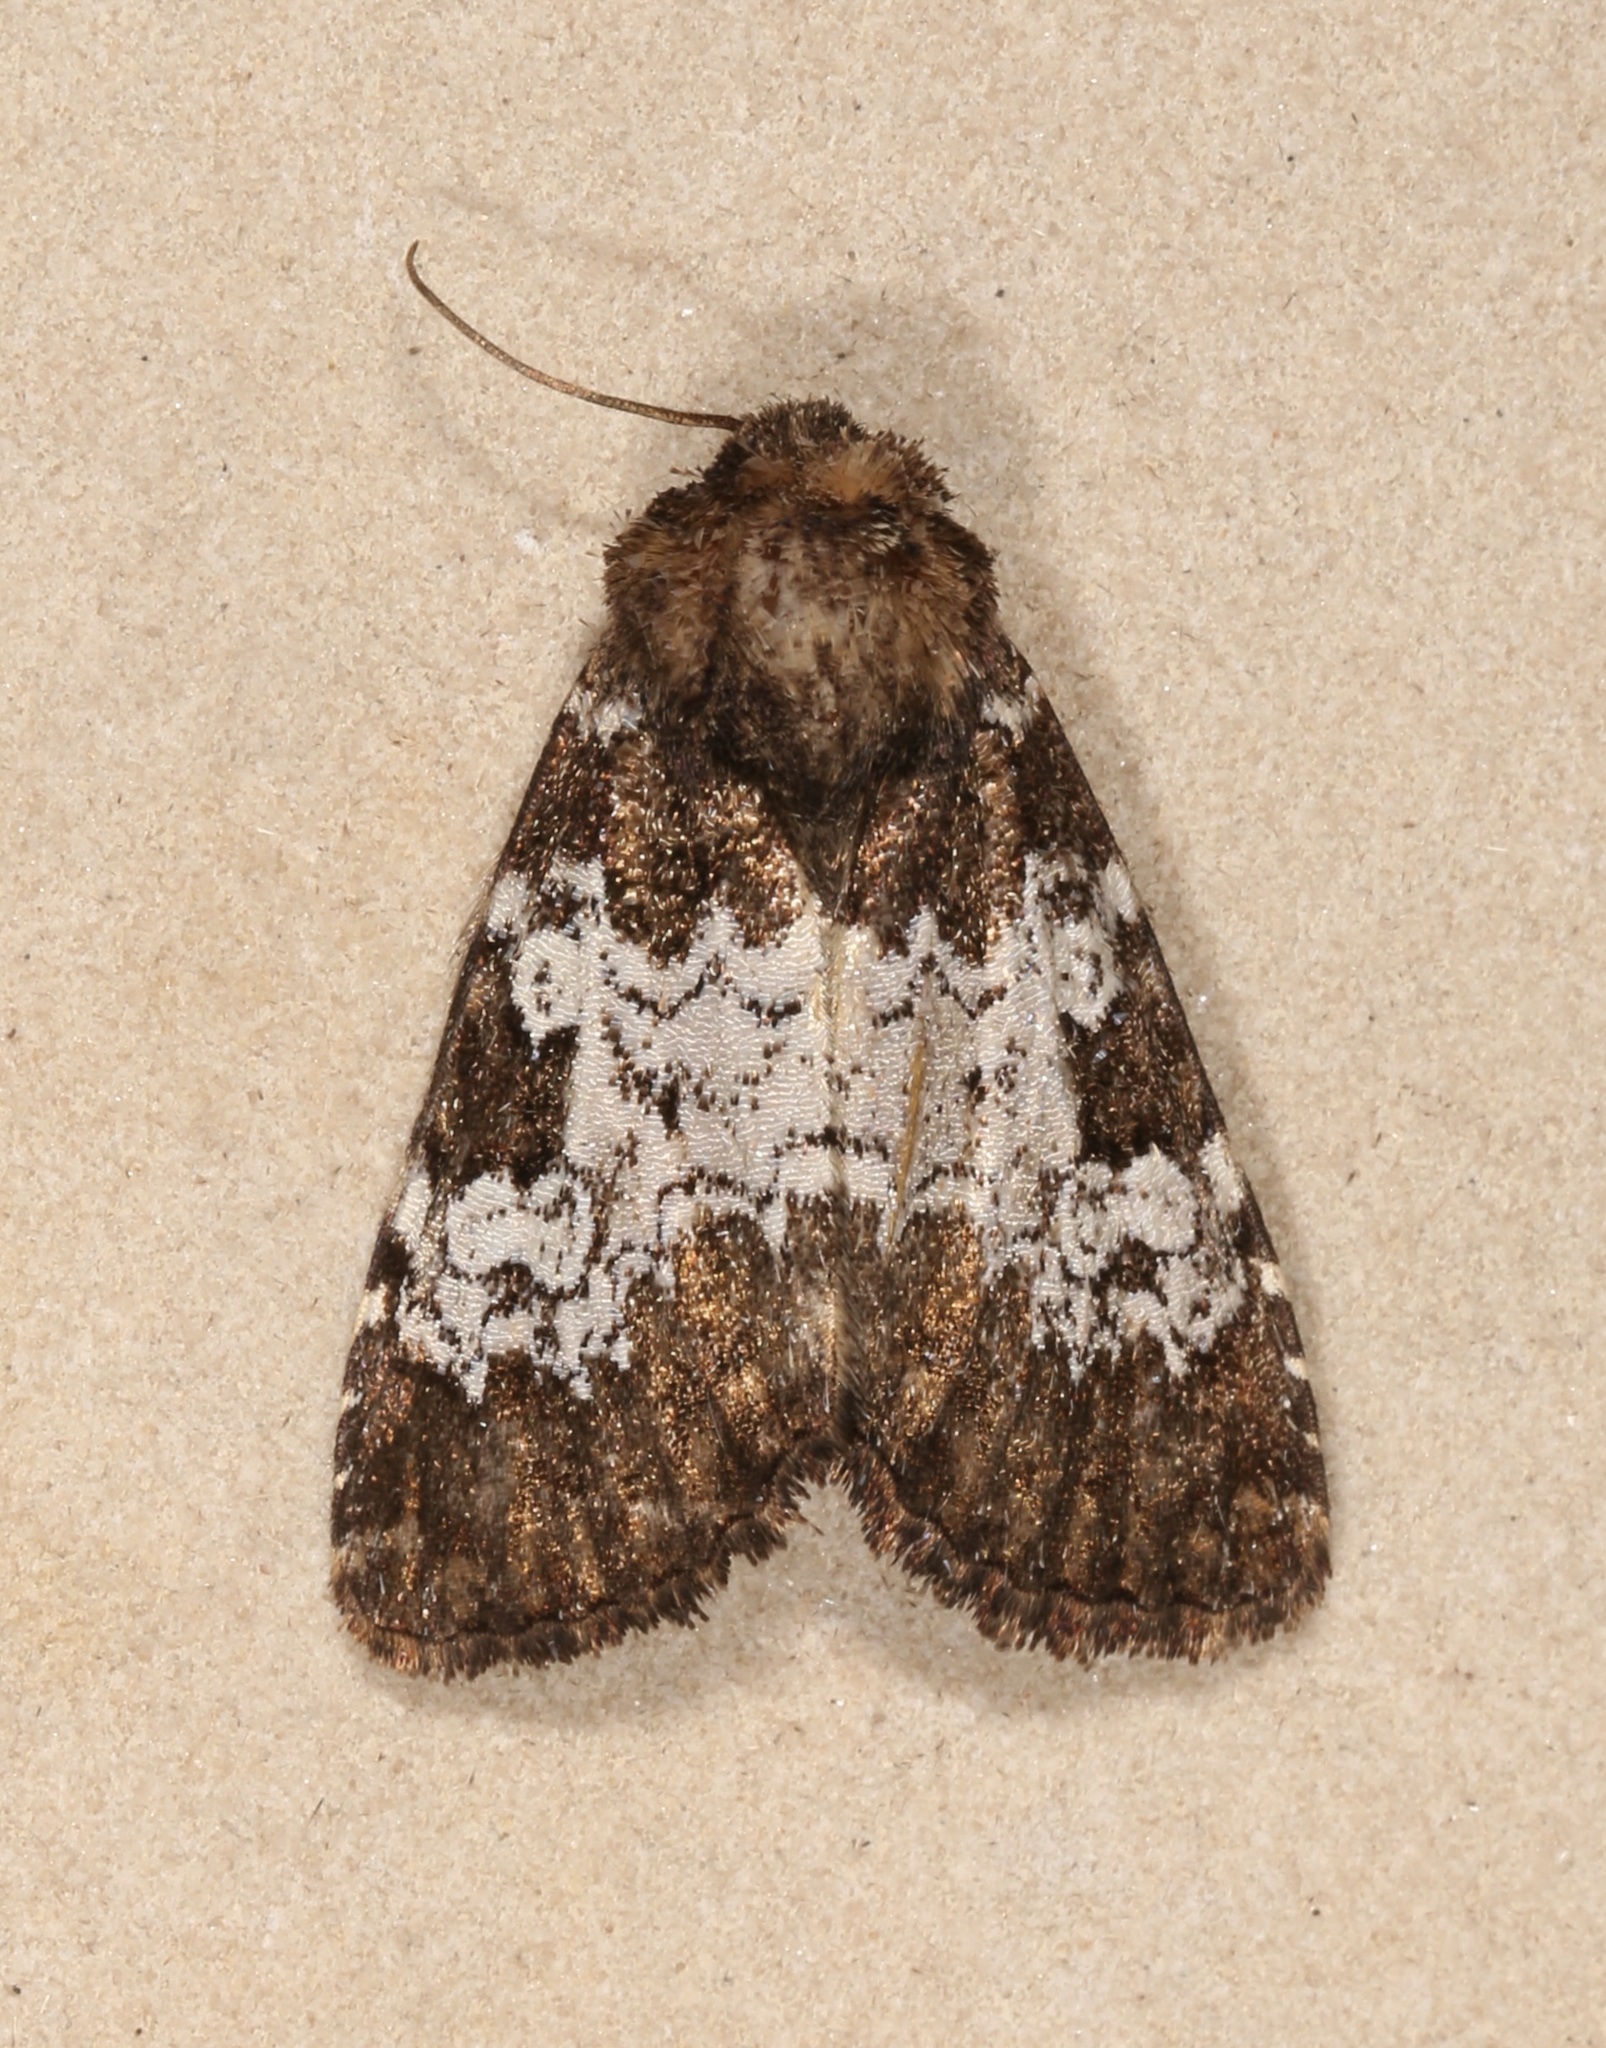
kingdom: Animalia
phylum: Arthropoda
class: Insecta
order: Lepidoptera
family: Noctuidae
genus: Euamiana
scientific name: Euamiana contrasta
